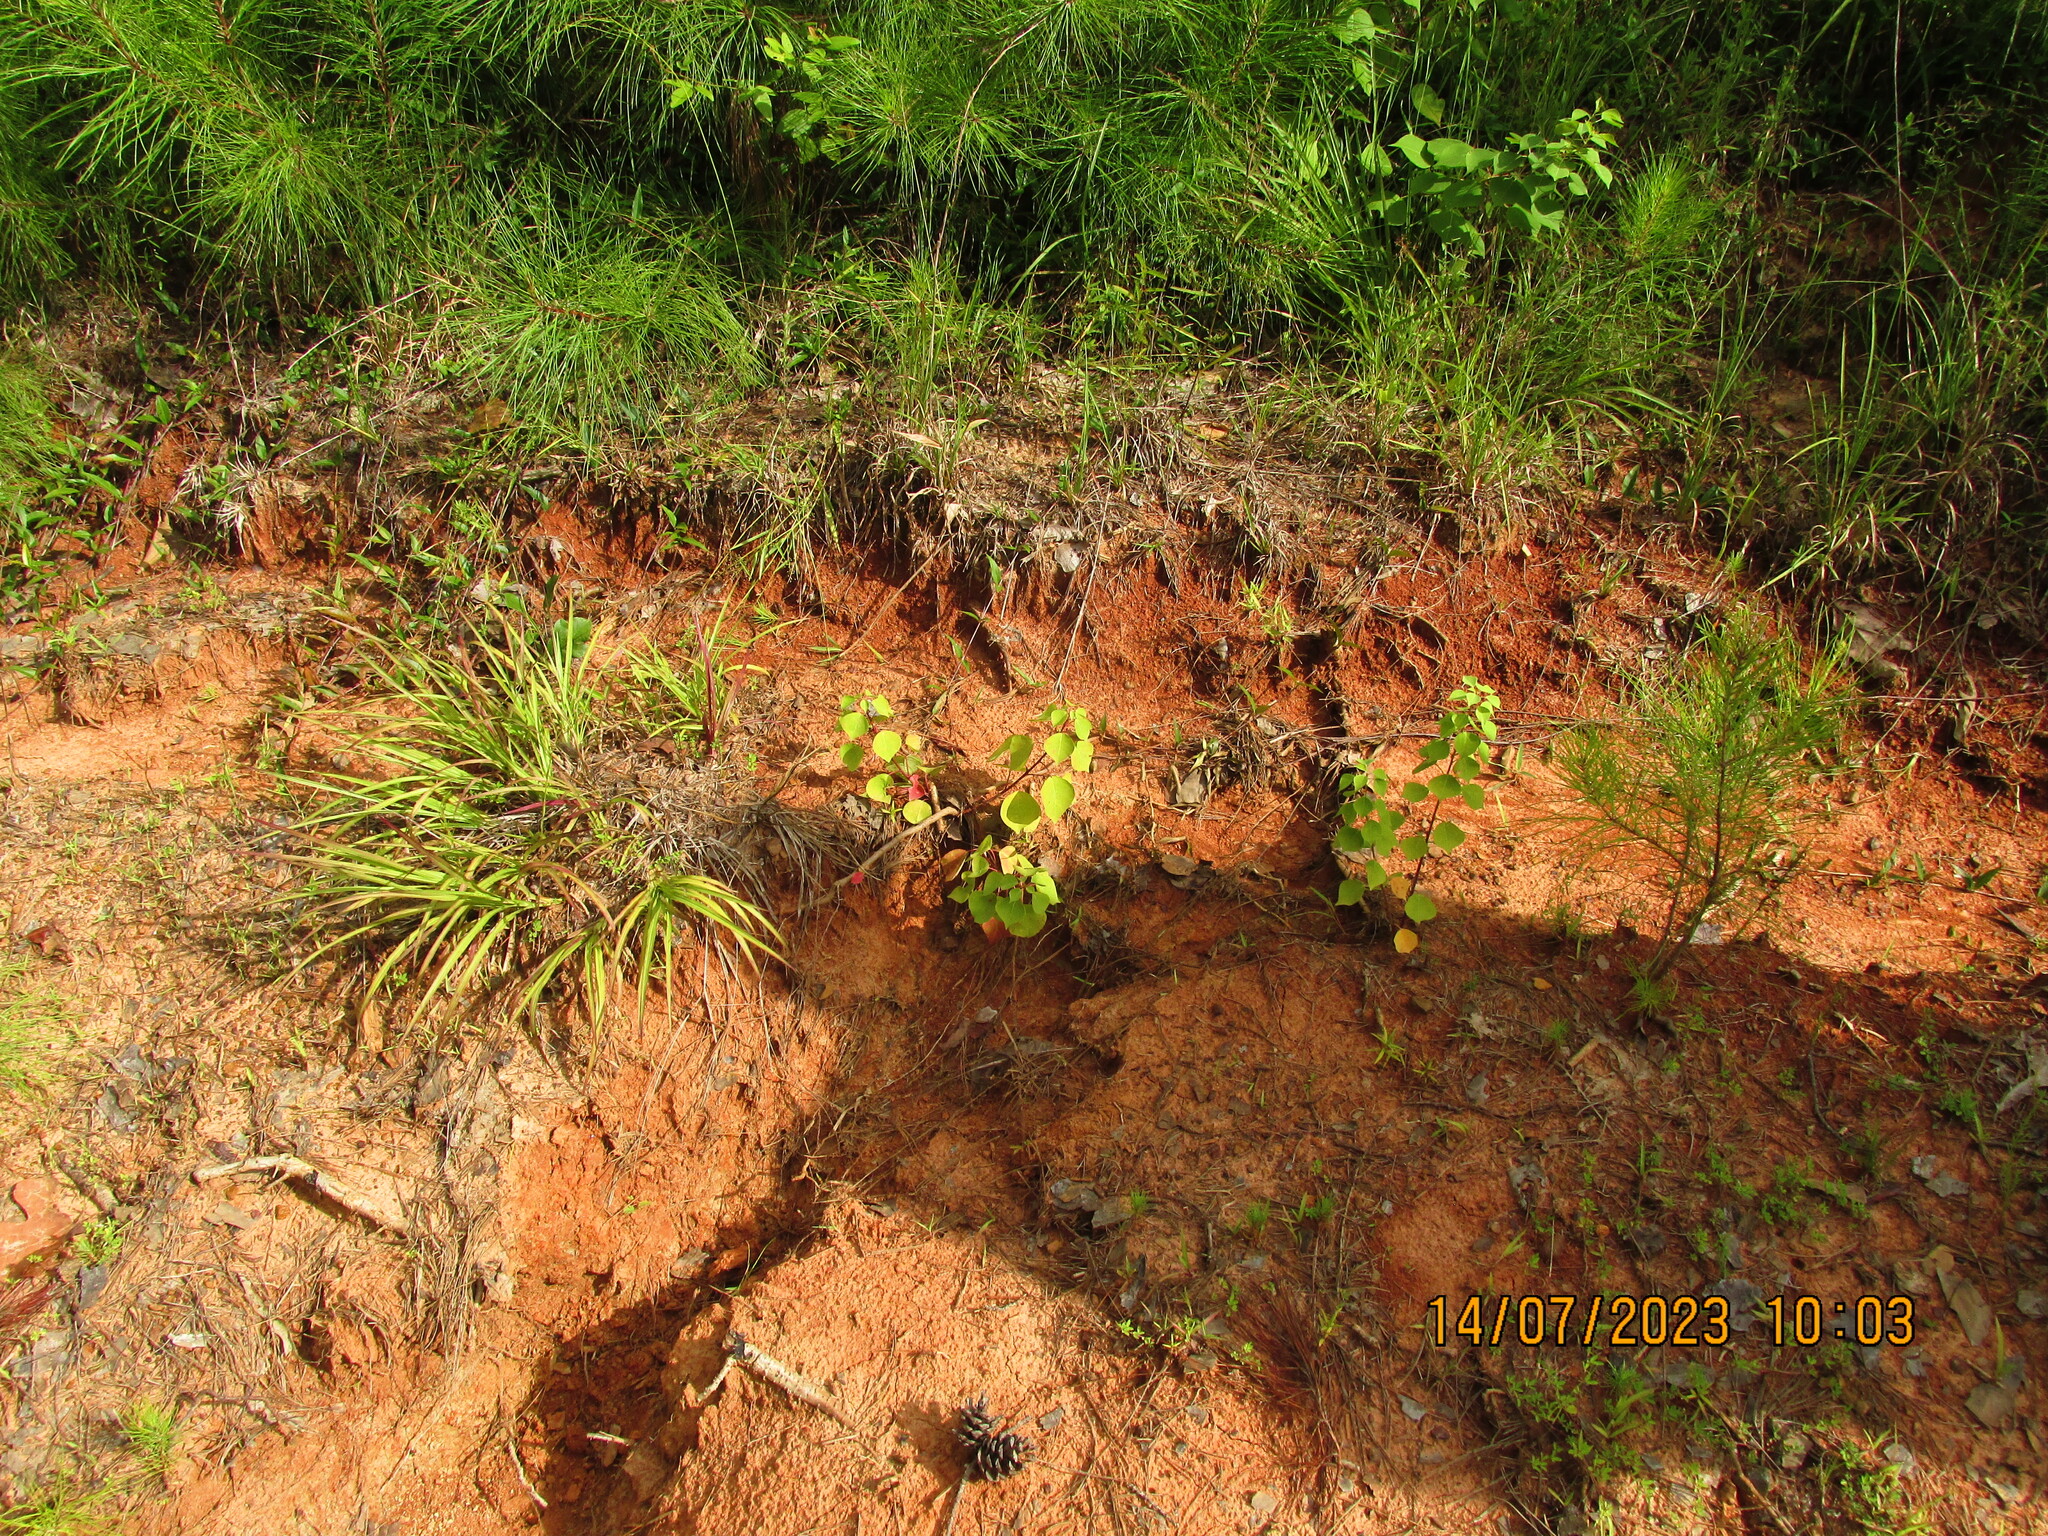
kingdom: Plantae
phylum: Tracheophyta
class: Magnoliopsida
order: Malpighiales
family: Euphorbiaceae
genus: Triadica
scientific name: Triadica sebifera
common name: Chinese tallow
